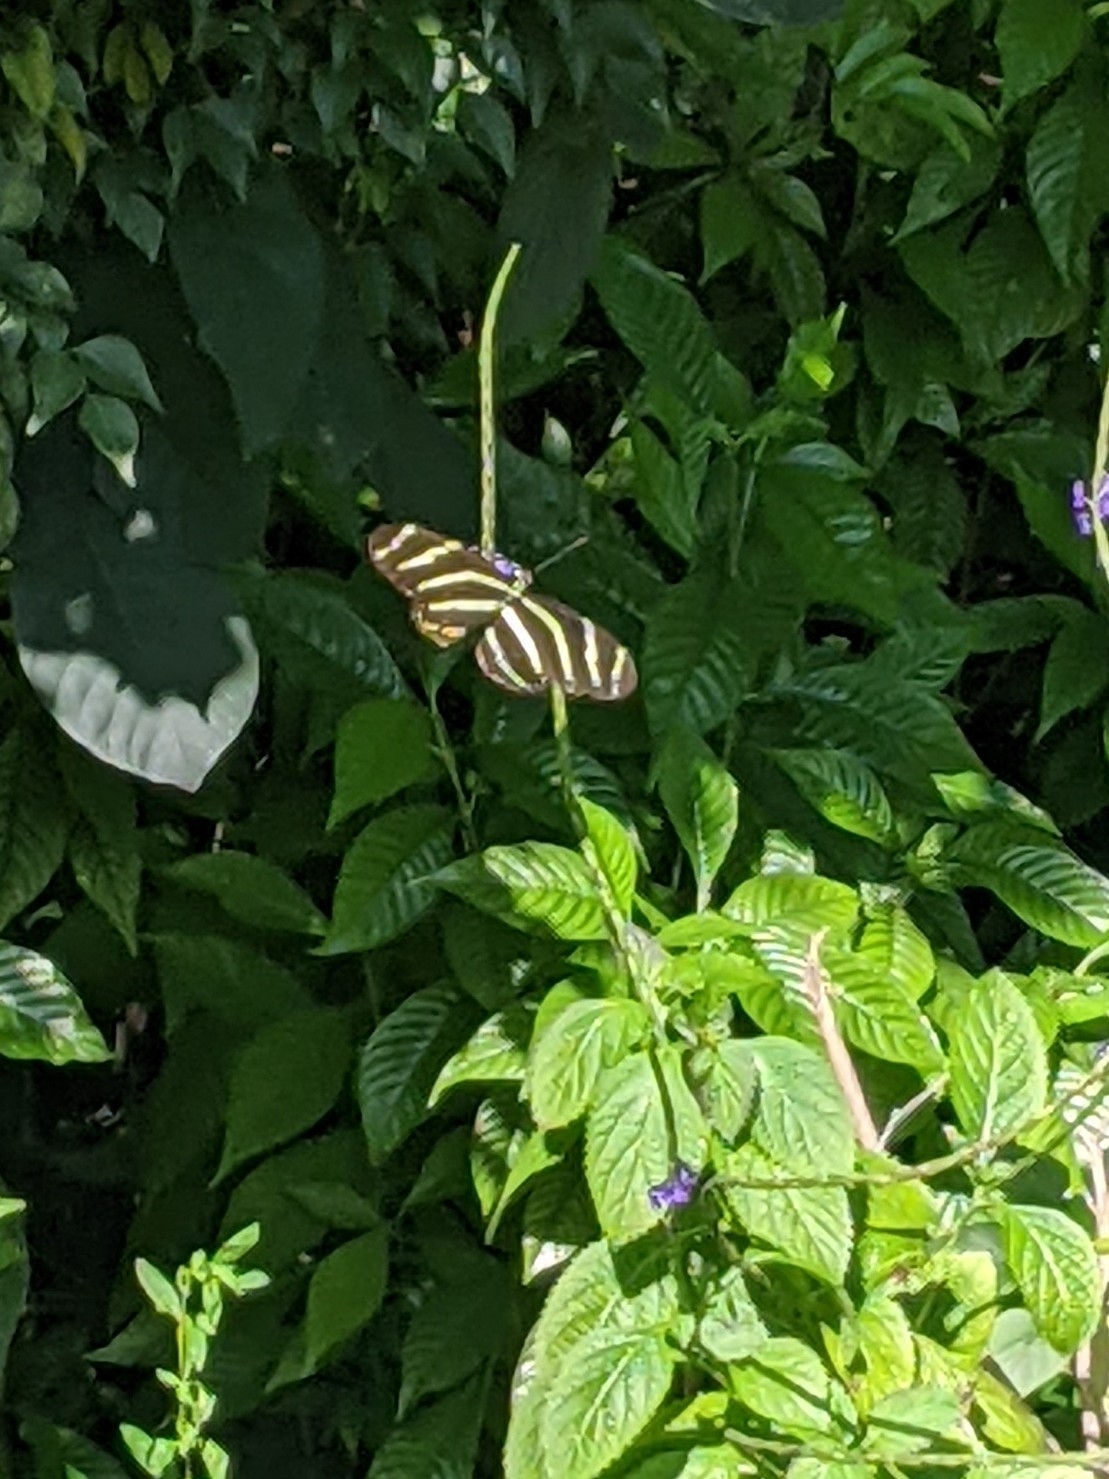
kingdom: Animalia
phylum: Arthropoda
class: Insecta
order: Lepidoptera
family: Nymphalidae
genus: Heliconius
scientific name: Heliconius charithonia
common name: Zebra long wing
